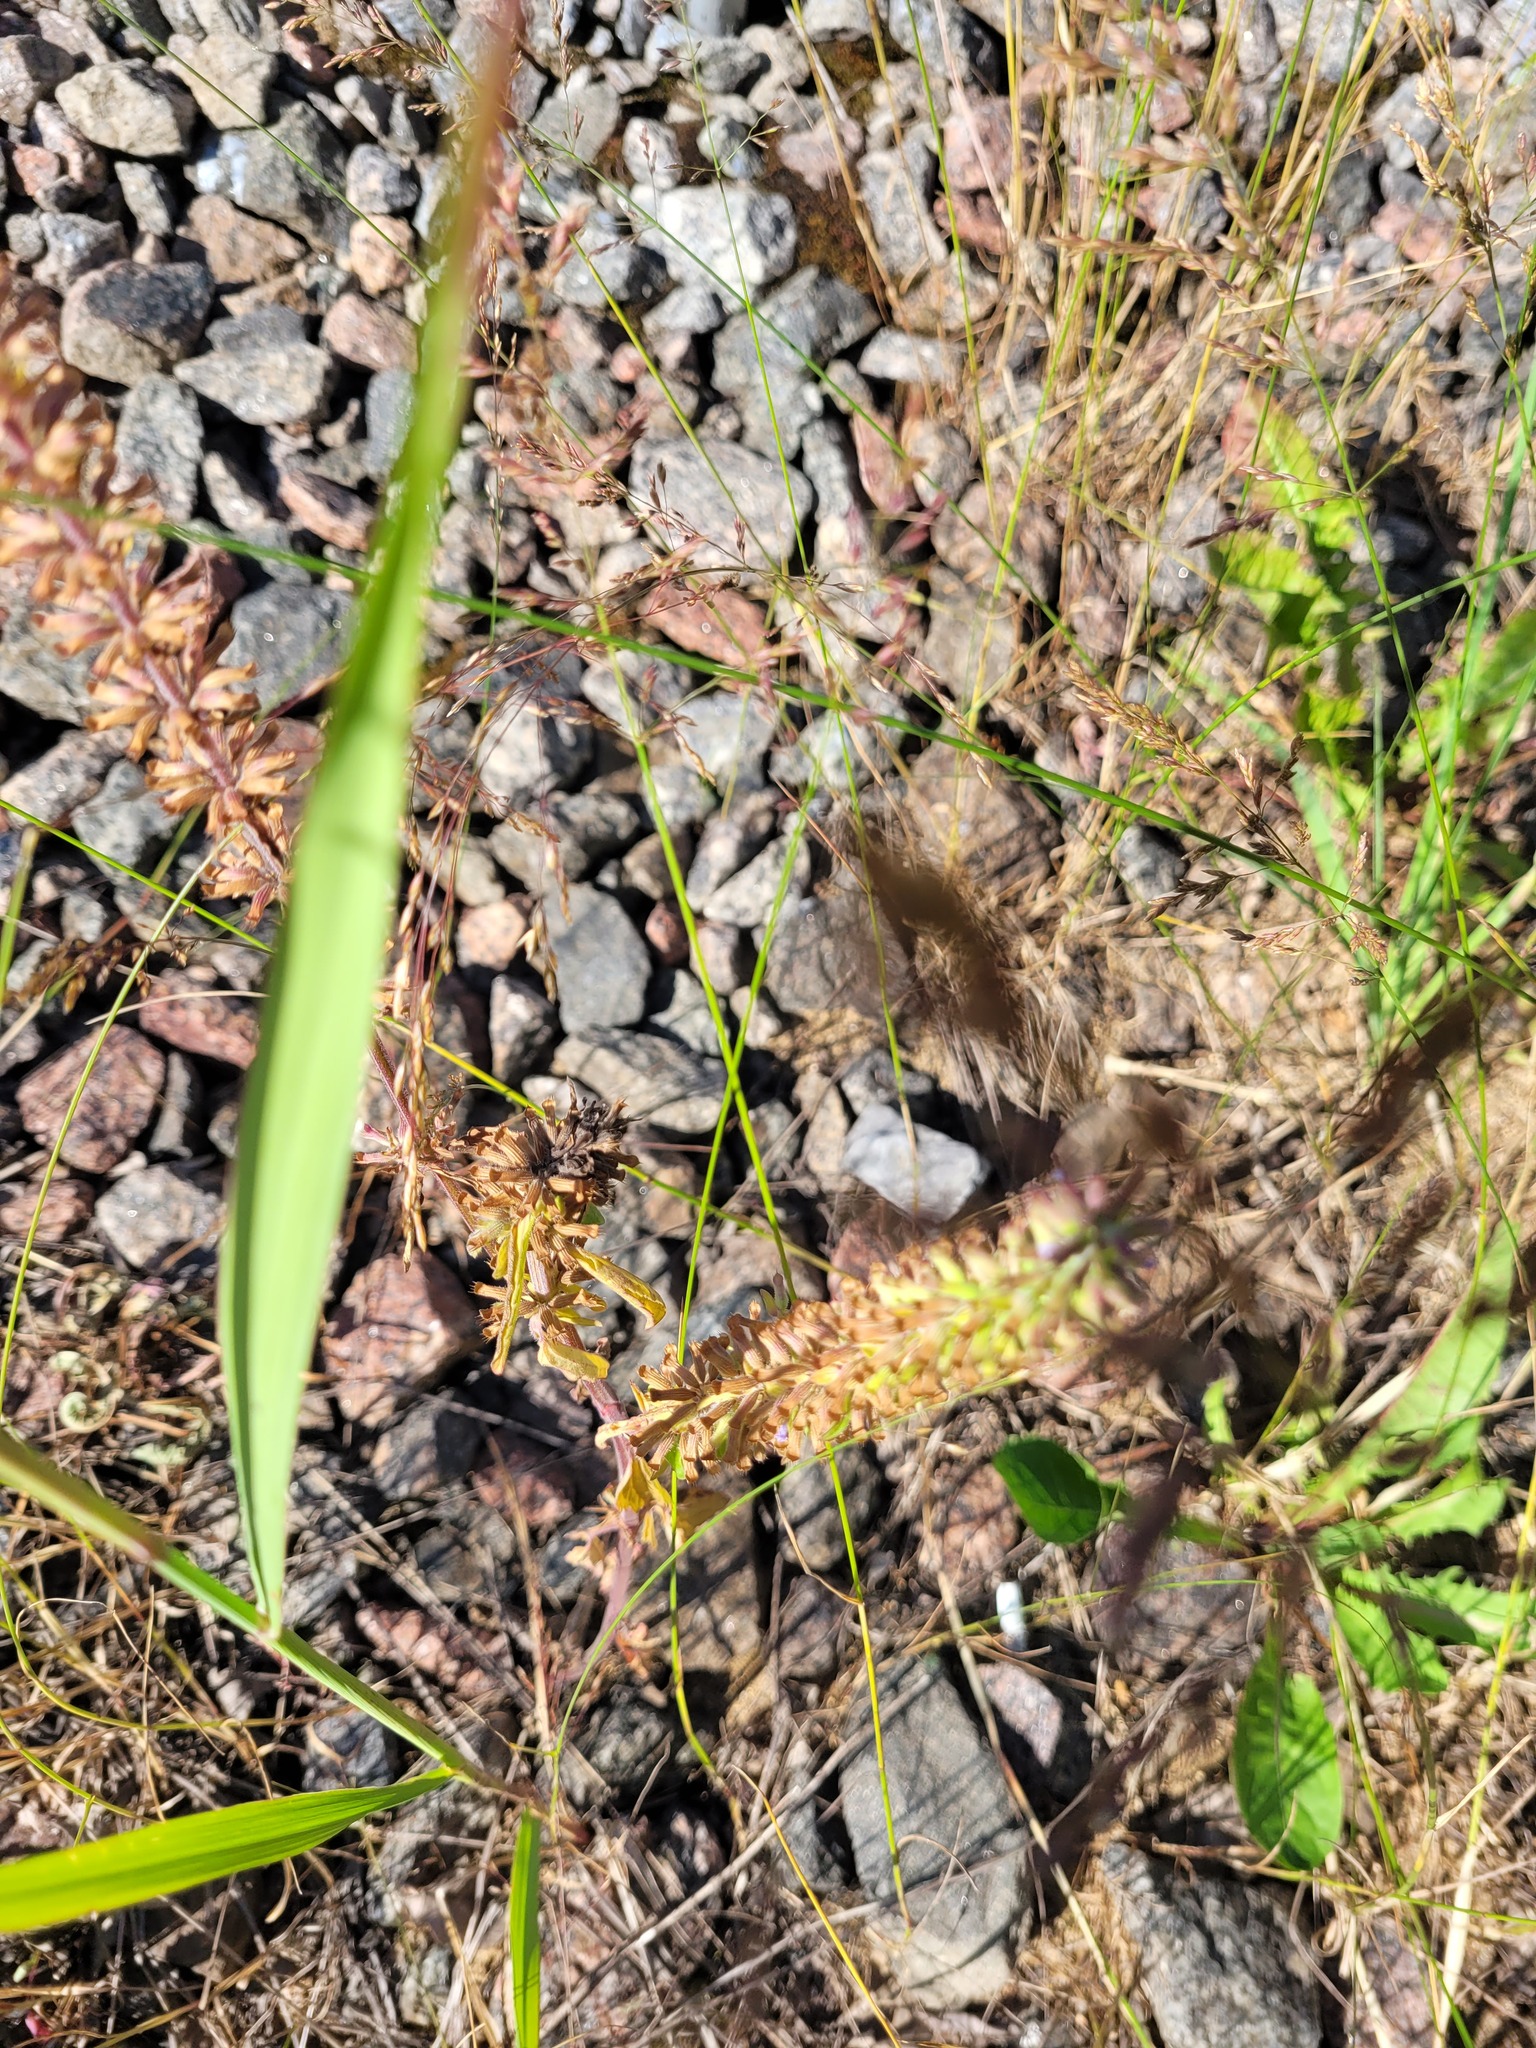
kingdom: Plantae
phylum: Tracheophyta
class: Magnoliopsida
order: Lamiales
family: Lamiaceae
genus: Dracocephalum
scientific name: Dracocephalum thymiflorum
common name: Thymeleaf dragonhead
